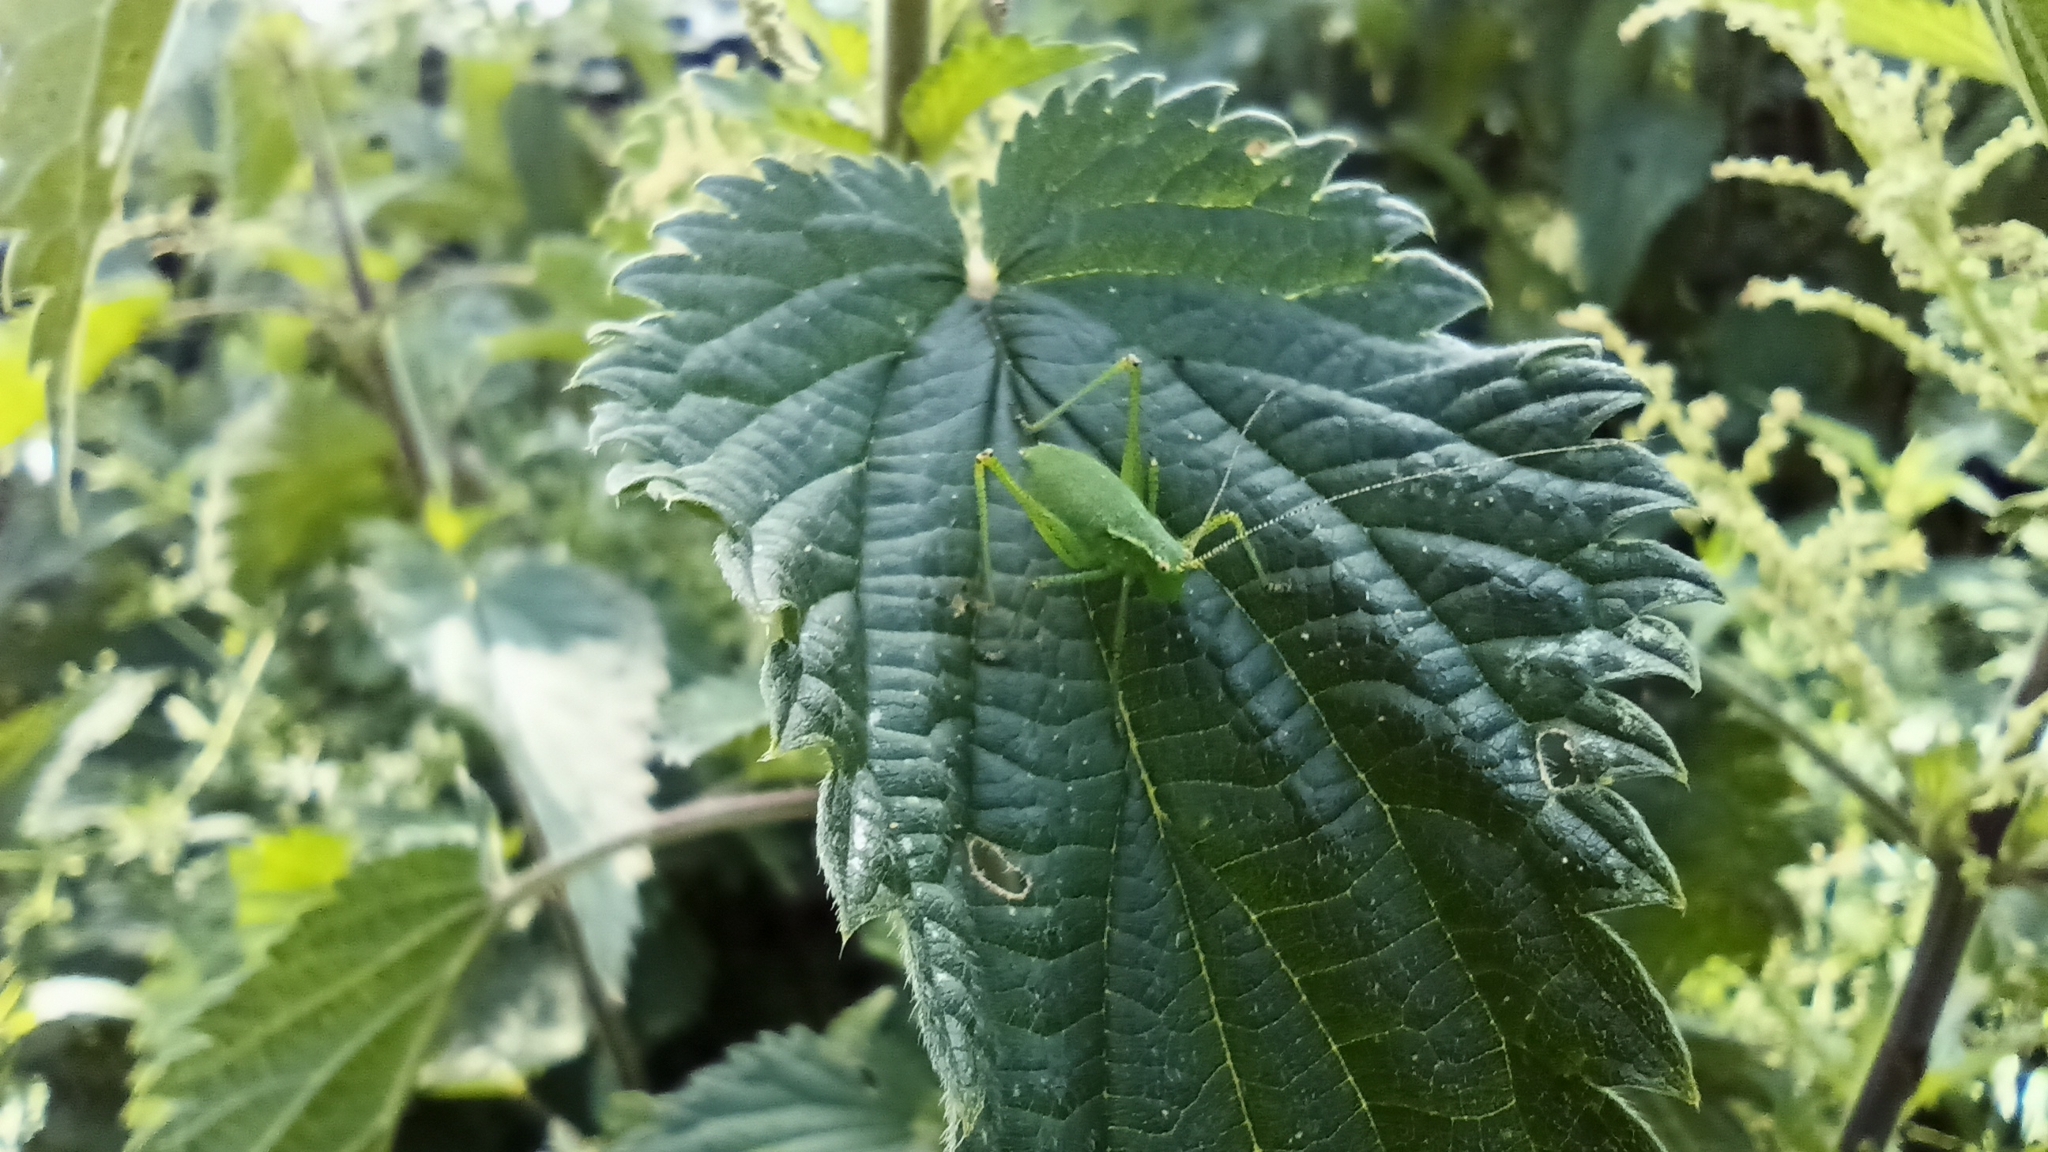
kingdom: Animalia
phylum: Arthropoda
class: Insecta
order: Orthoptera
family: Tettigoniidae
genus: Leptophyes
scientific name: Leptophyes punctatissima
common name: Speckled bush-cricket
